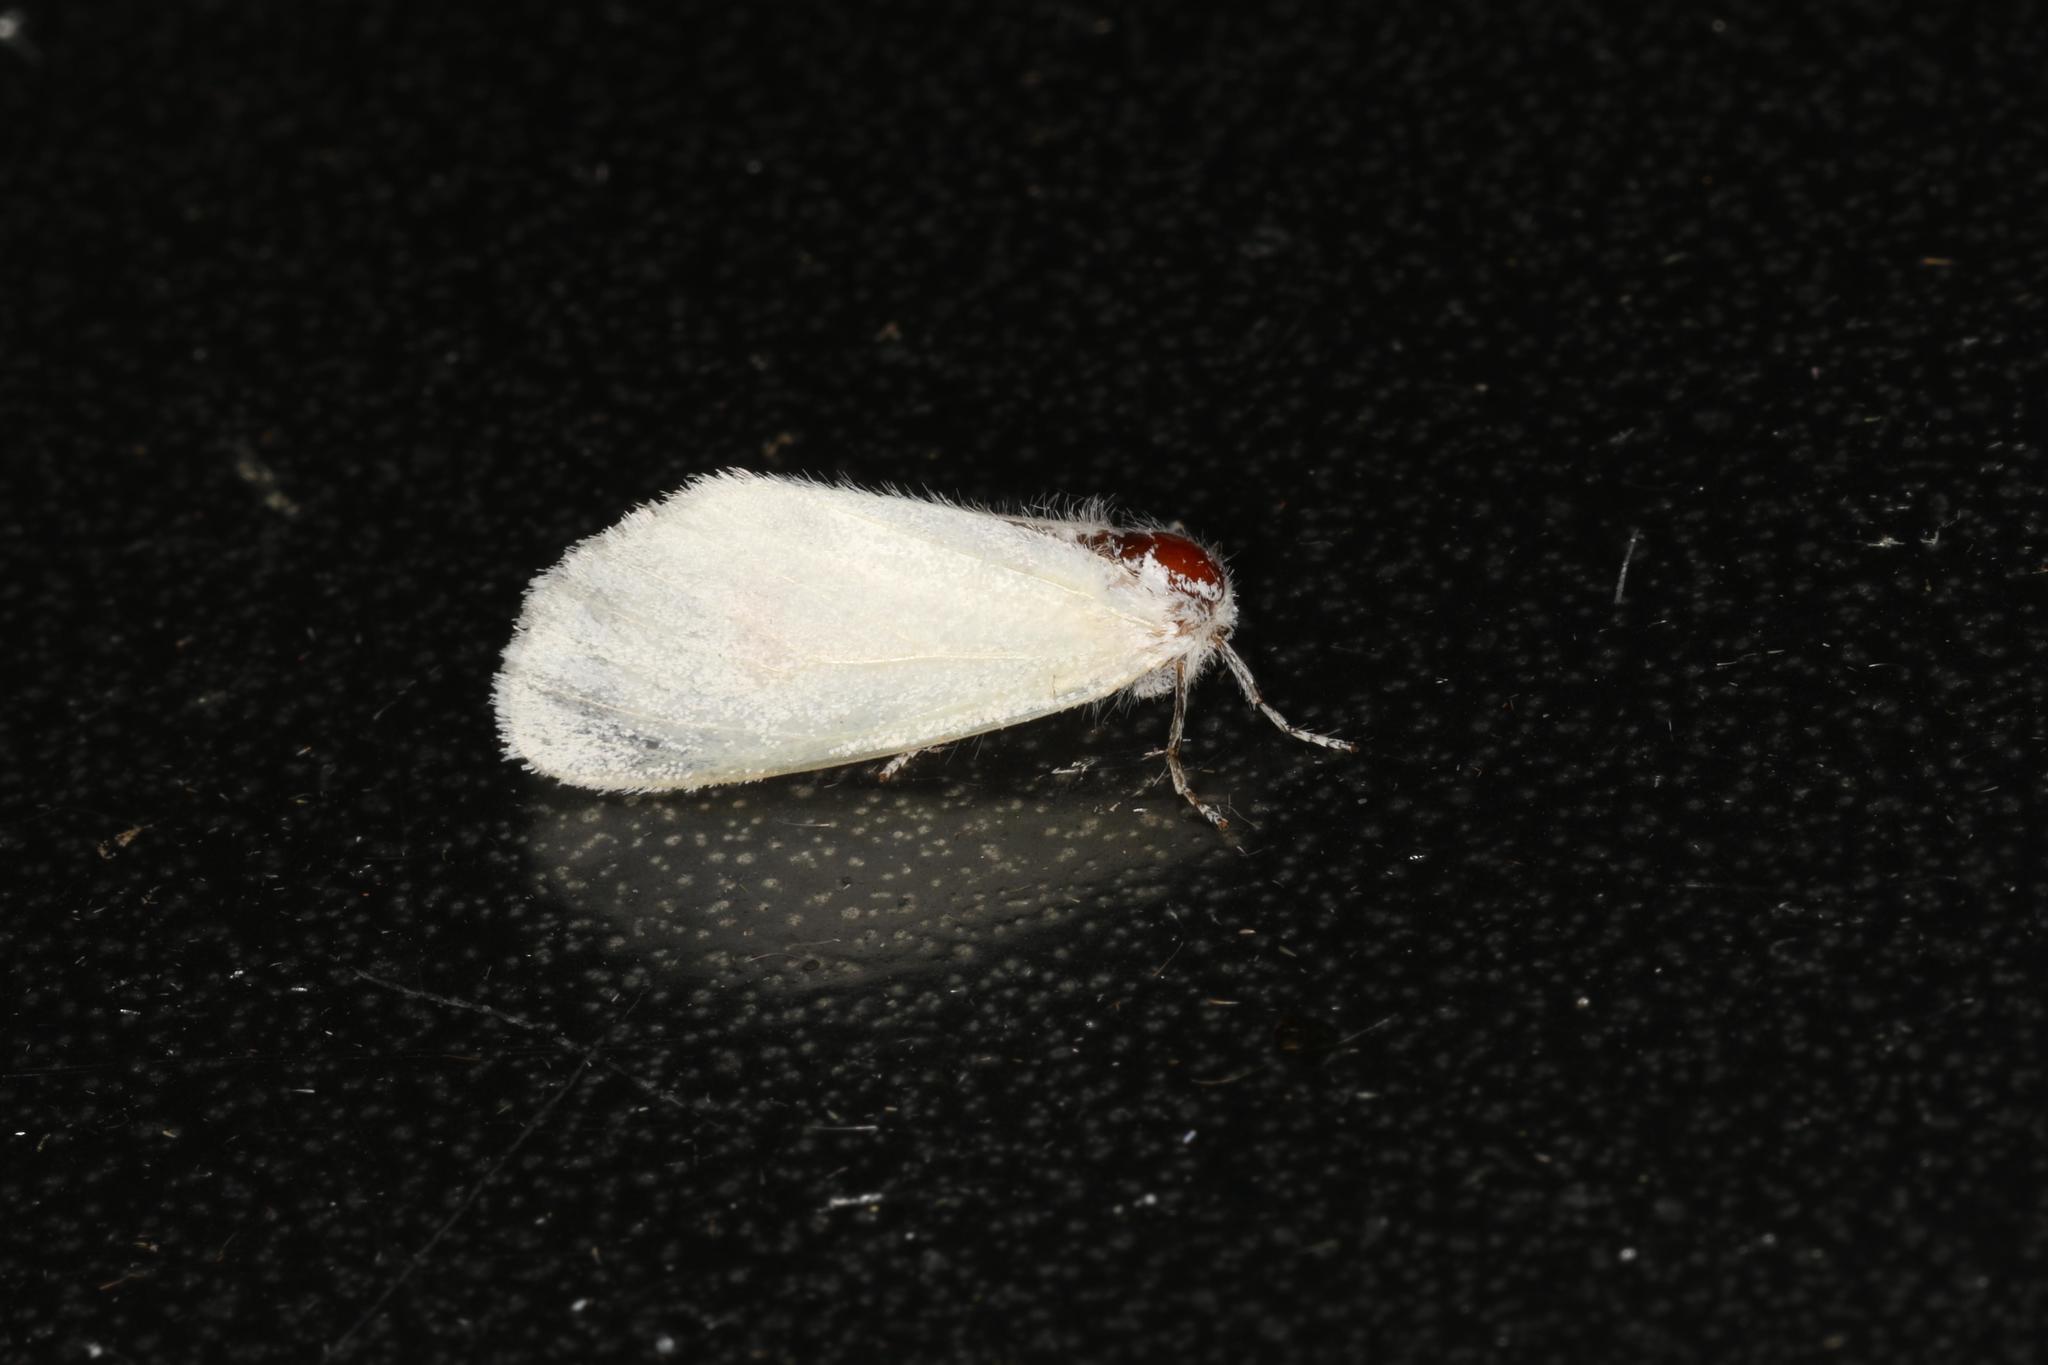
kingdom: Animalia
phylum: Arthropoda
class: Insecta
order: Lepidoptera
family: Erebidae
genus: Euproctis
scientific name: Euproctis melanosoma
